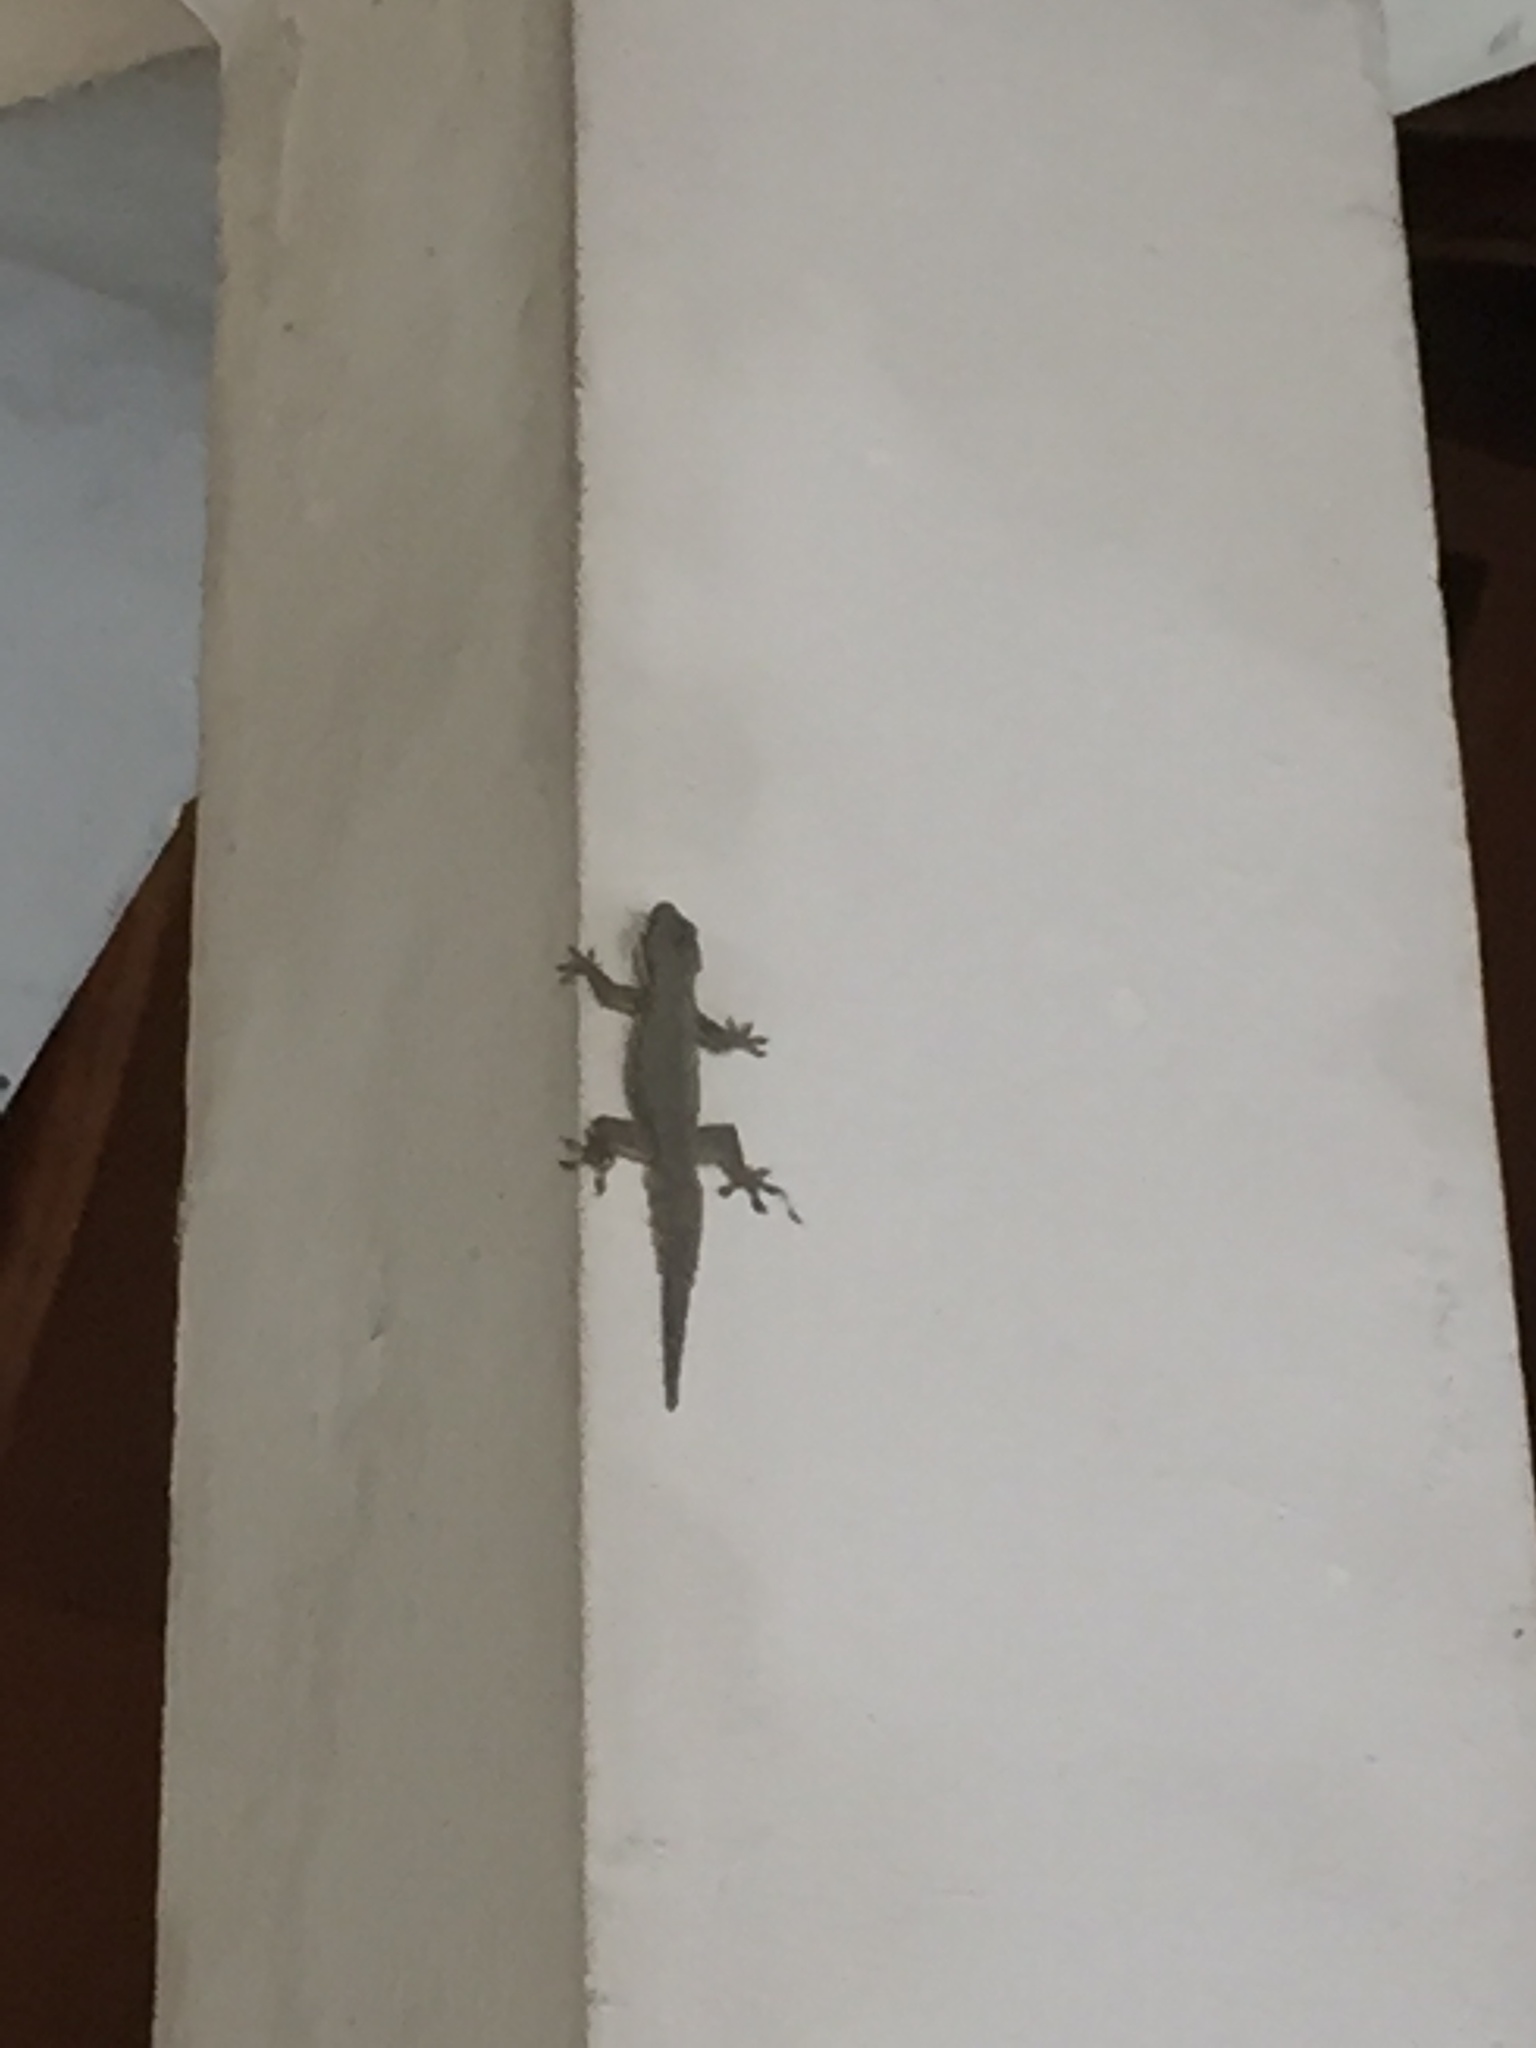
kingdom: Animalia
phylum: Chordata
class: Squamata
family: Gekkonidae
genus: Hemidactylus
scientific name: Hemidactylus platyurus
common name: Flat-tailed house gecko
